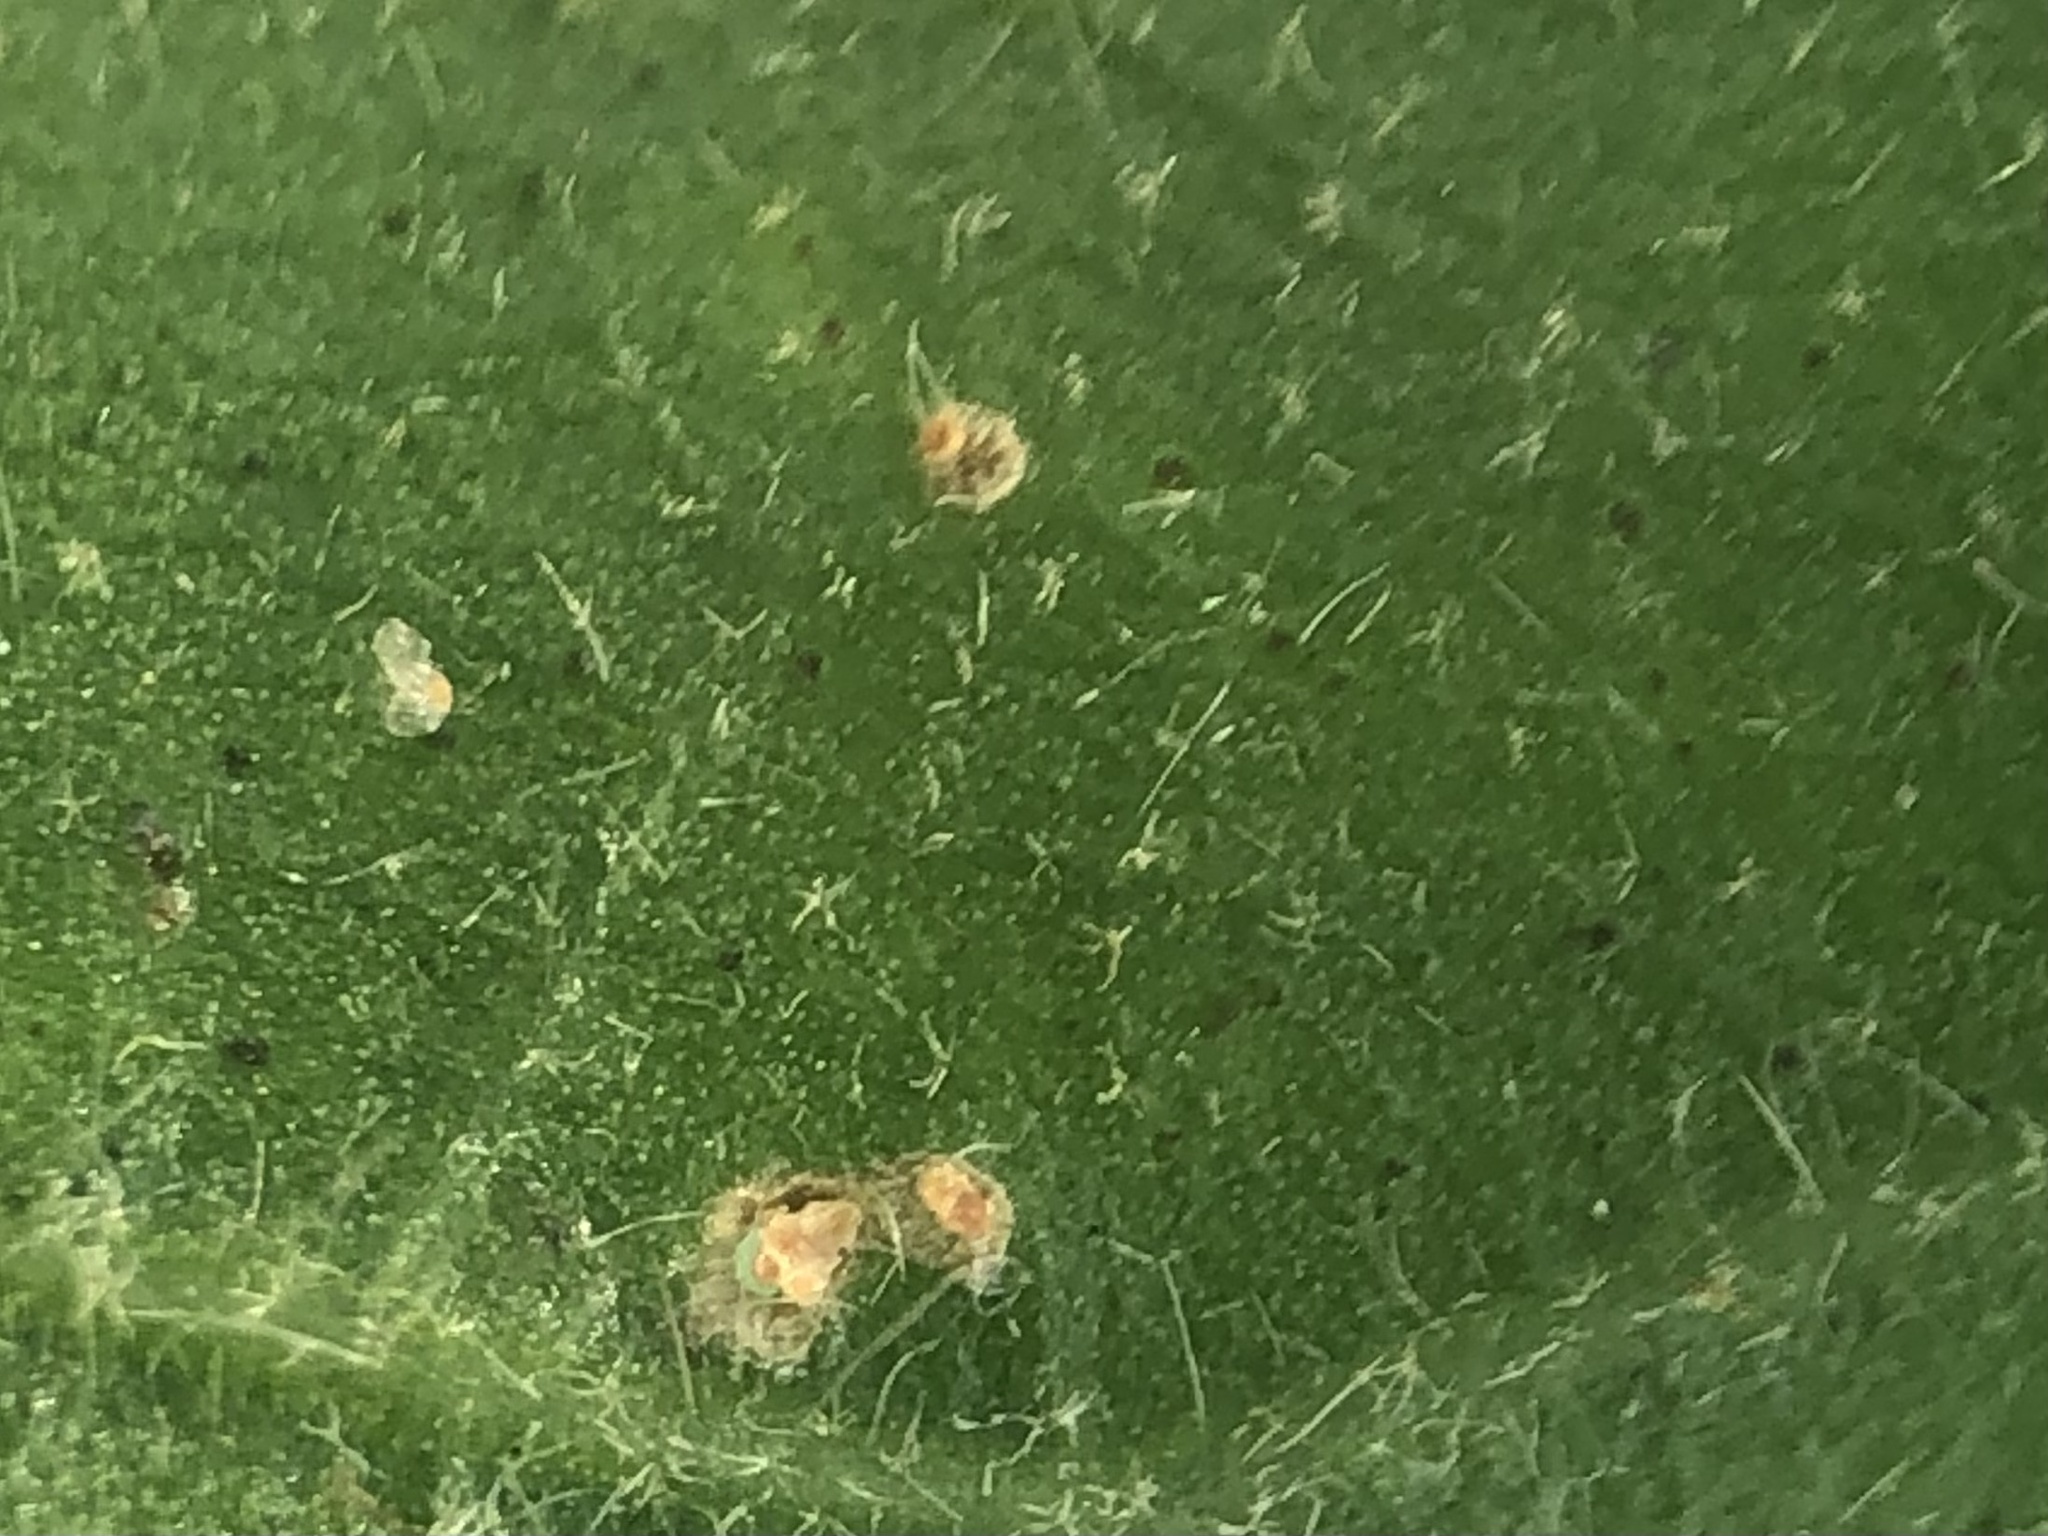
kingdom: Plantae
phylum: Tracheophyta
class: Magnoliopsida
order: Sapindales
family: Rutaceae
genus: Flindersia
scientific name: Flindersia xanthoxyla
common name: Long-jack
